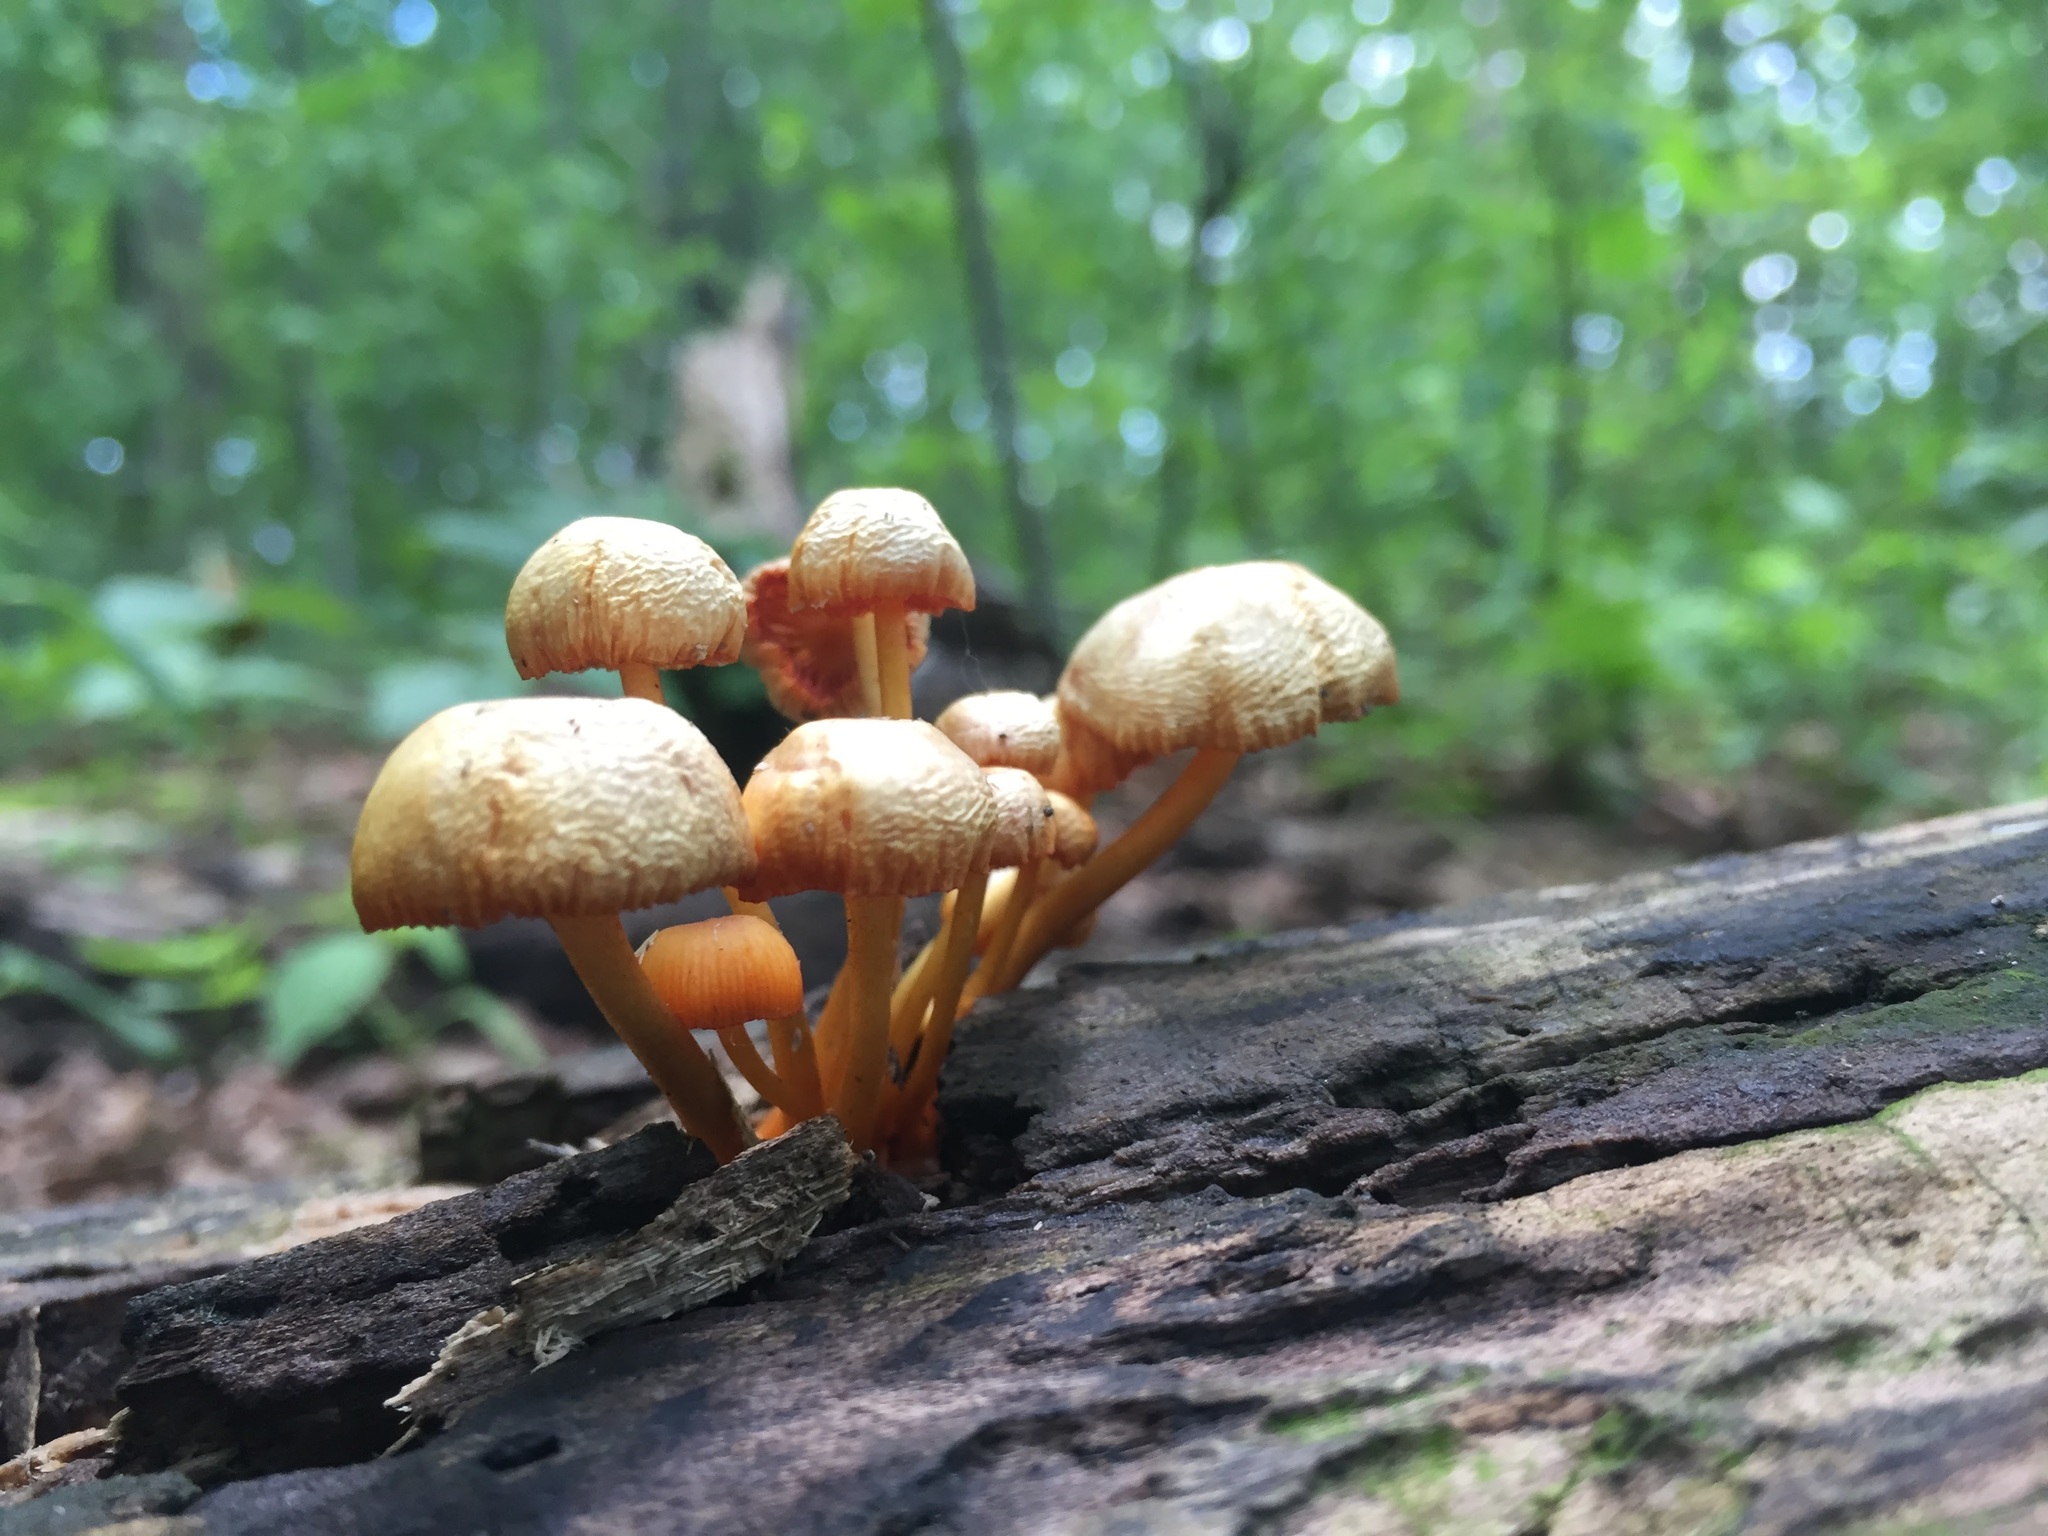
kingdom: Fungi
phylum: Basidiomycota
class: Agaricomycetes
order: Agaricales
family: Mycenaceae
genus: Mycena
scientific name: Mycena leaiana
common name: Orange mycena
